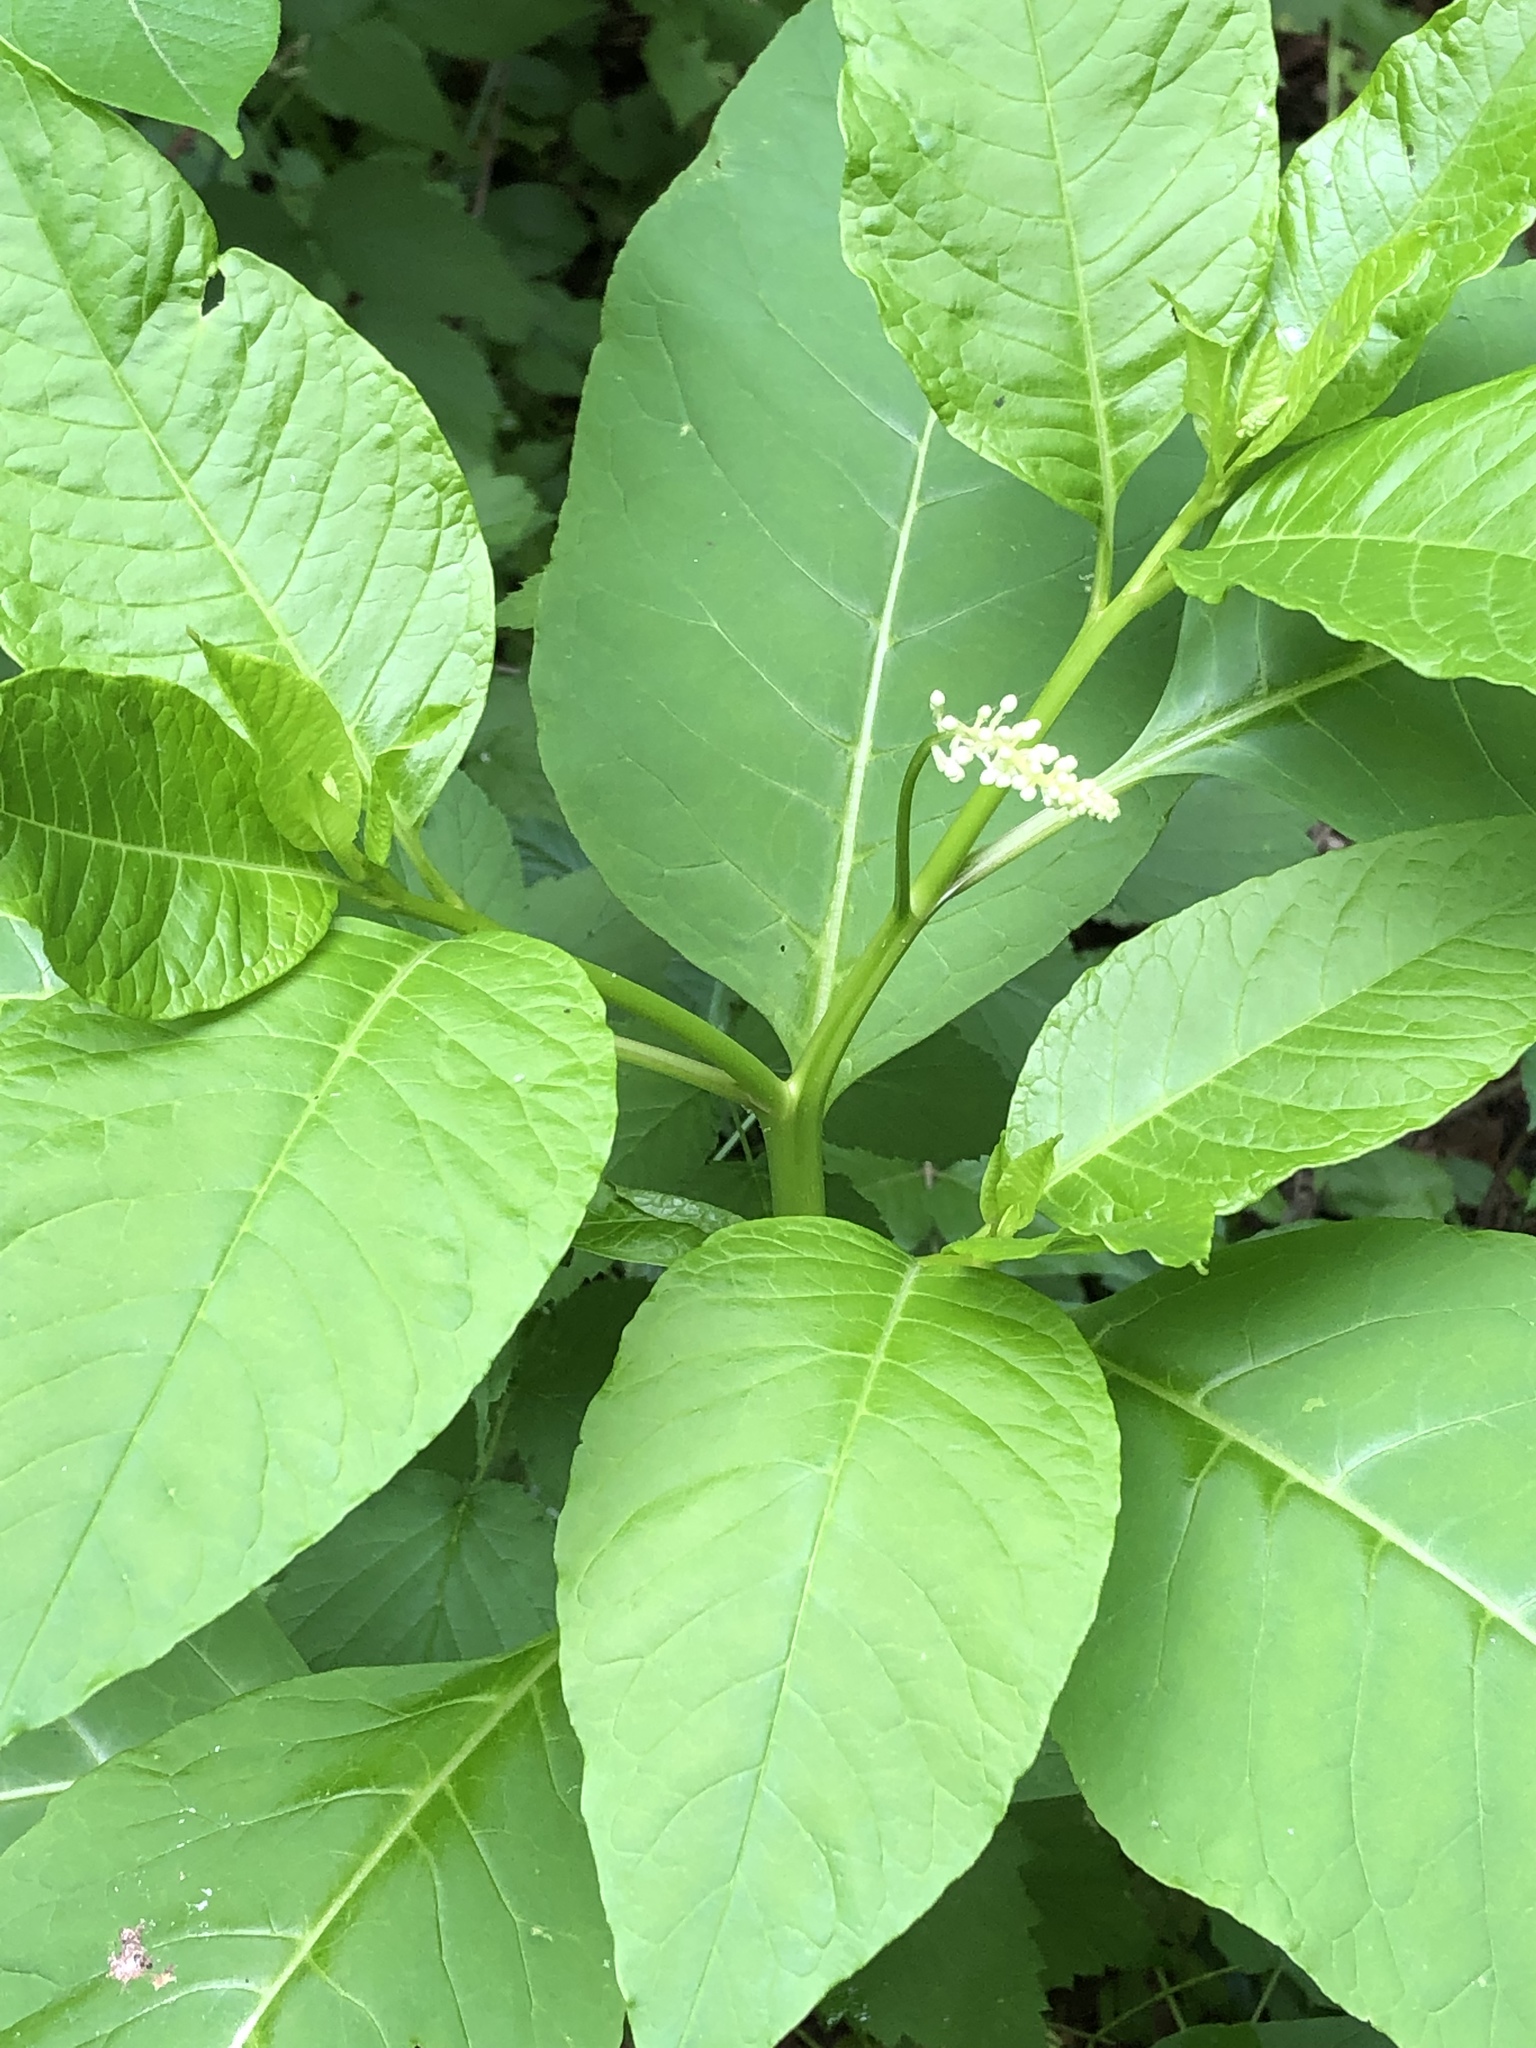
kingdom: Plantae
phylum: Tracheophyta
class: Magnoliopsida
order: Caryophyllales
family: Phytolaccaceae
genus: Phytolacca
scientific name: Phytolacca americana
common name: American pokeweed
